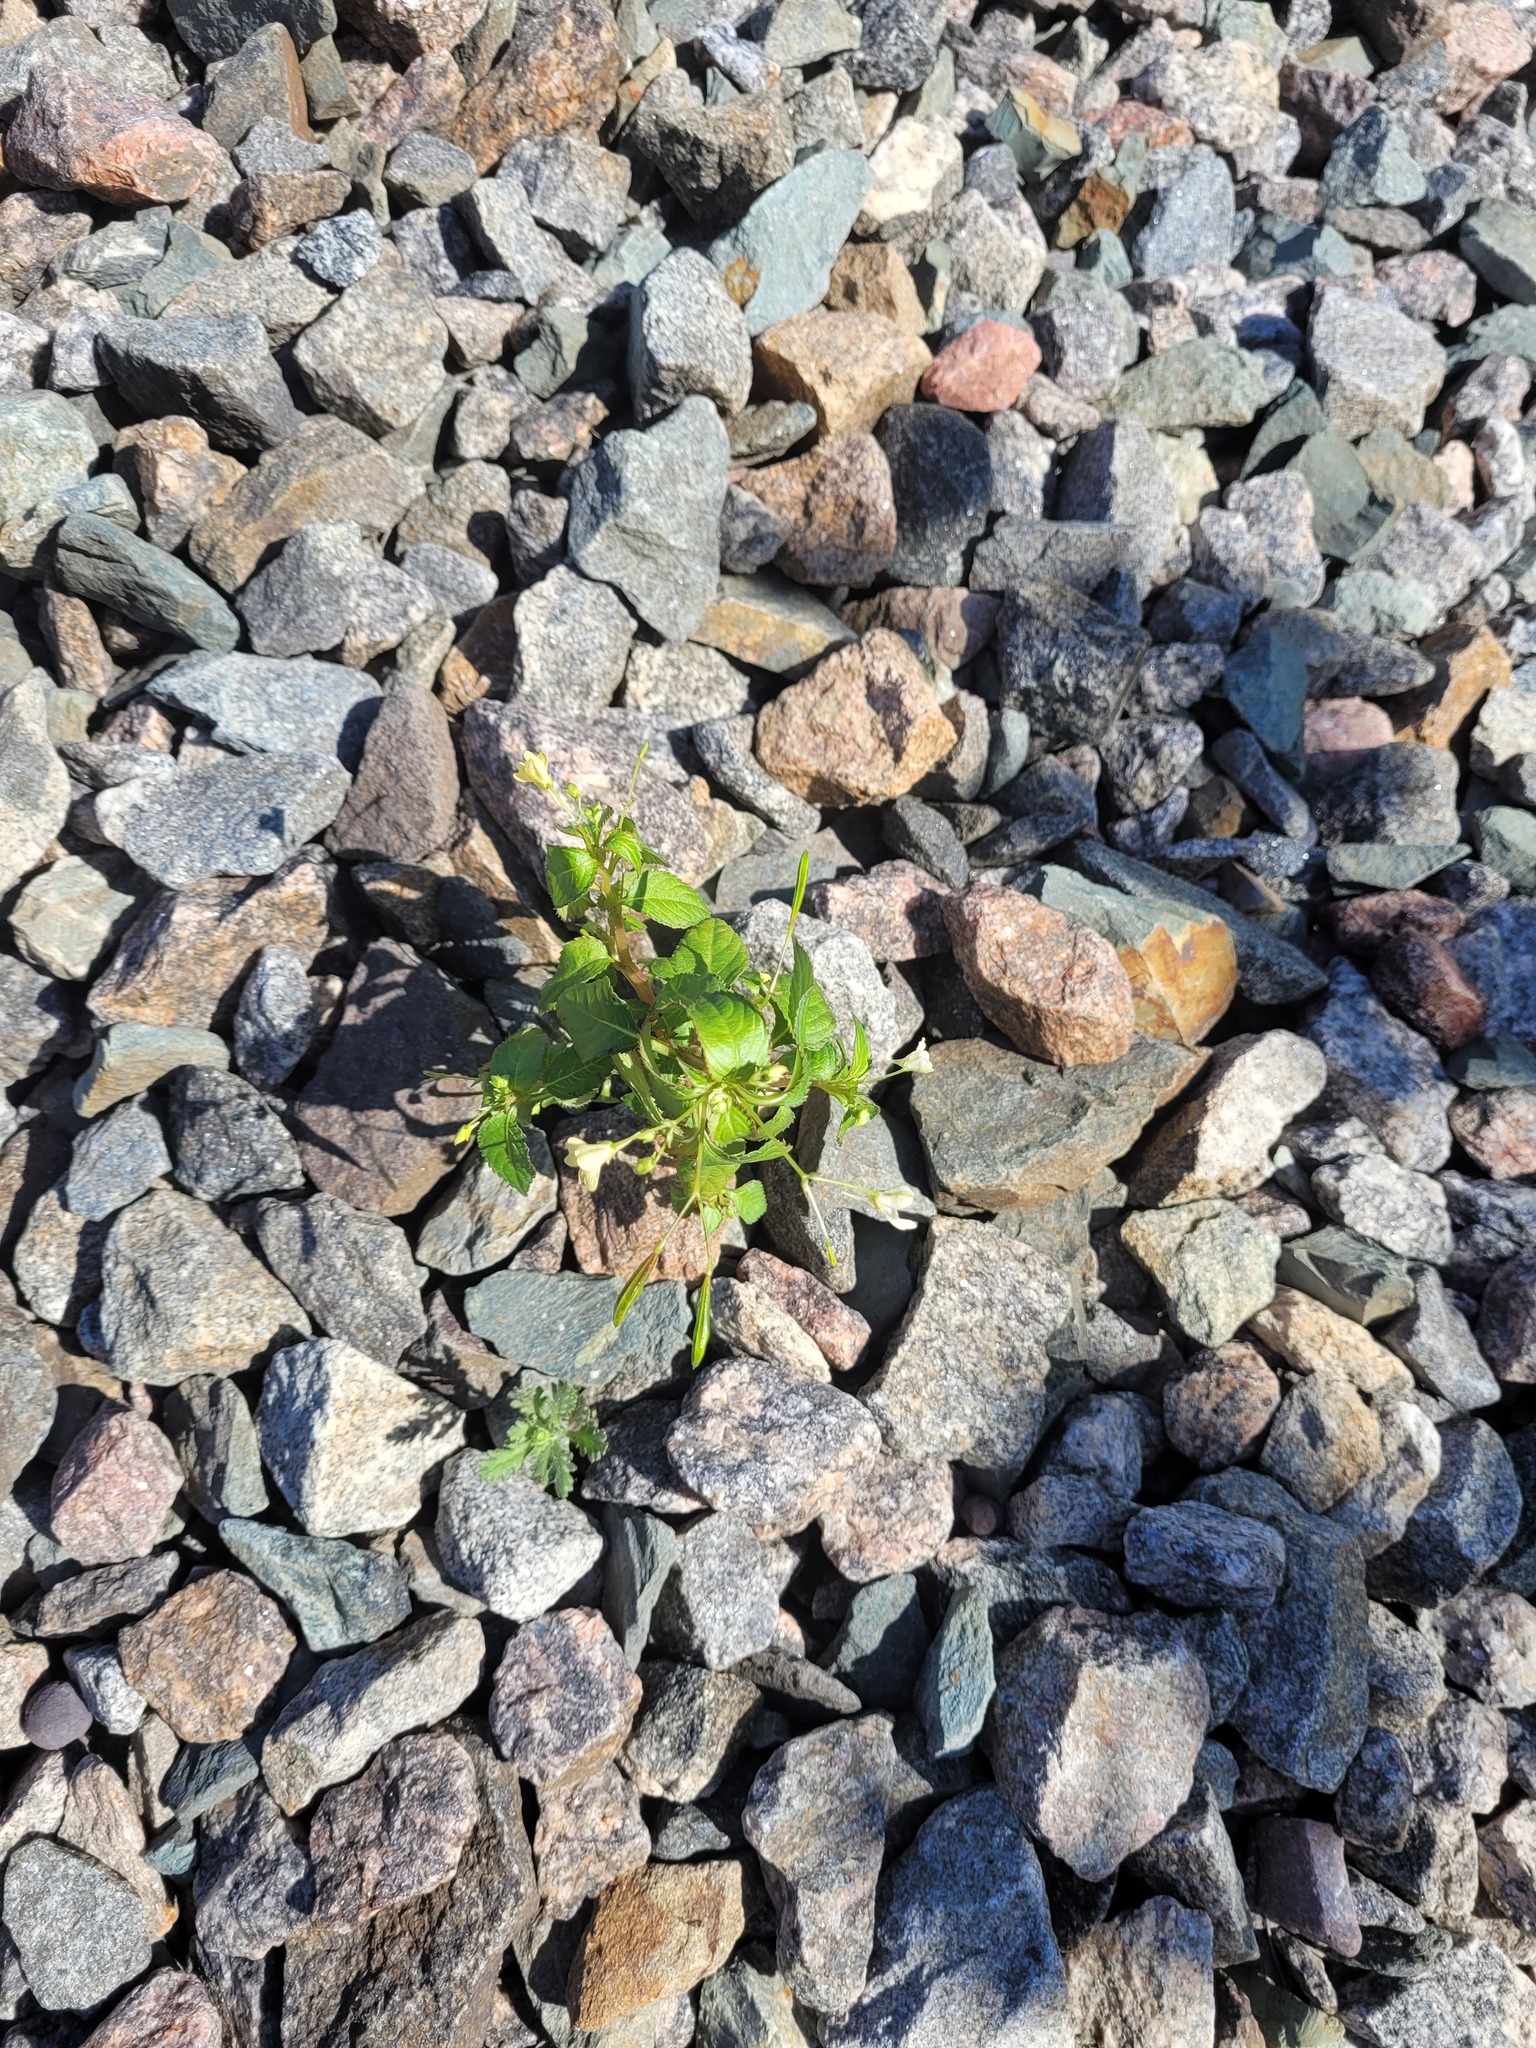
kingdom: Plantae
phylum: Tracheophyta
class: Magnoliopsida
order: Ericales
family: Balsaminaceae
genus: Impatiens
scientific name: Impatiens parviflora
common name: Small balsam
